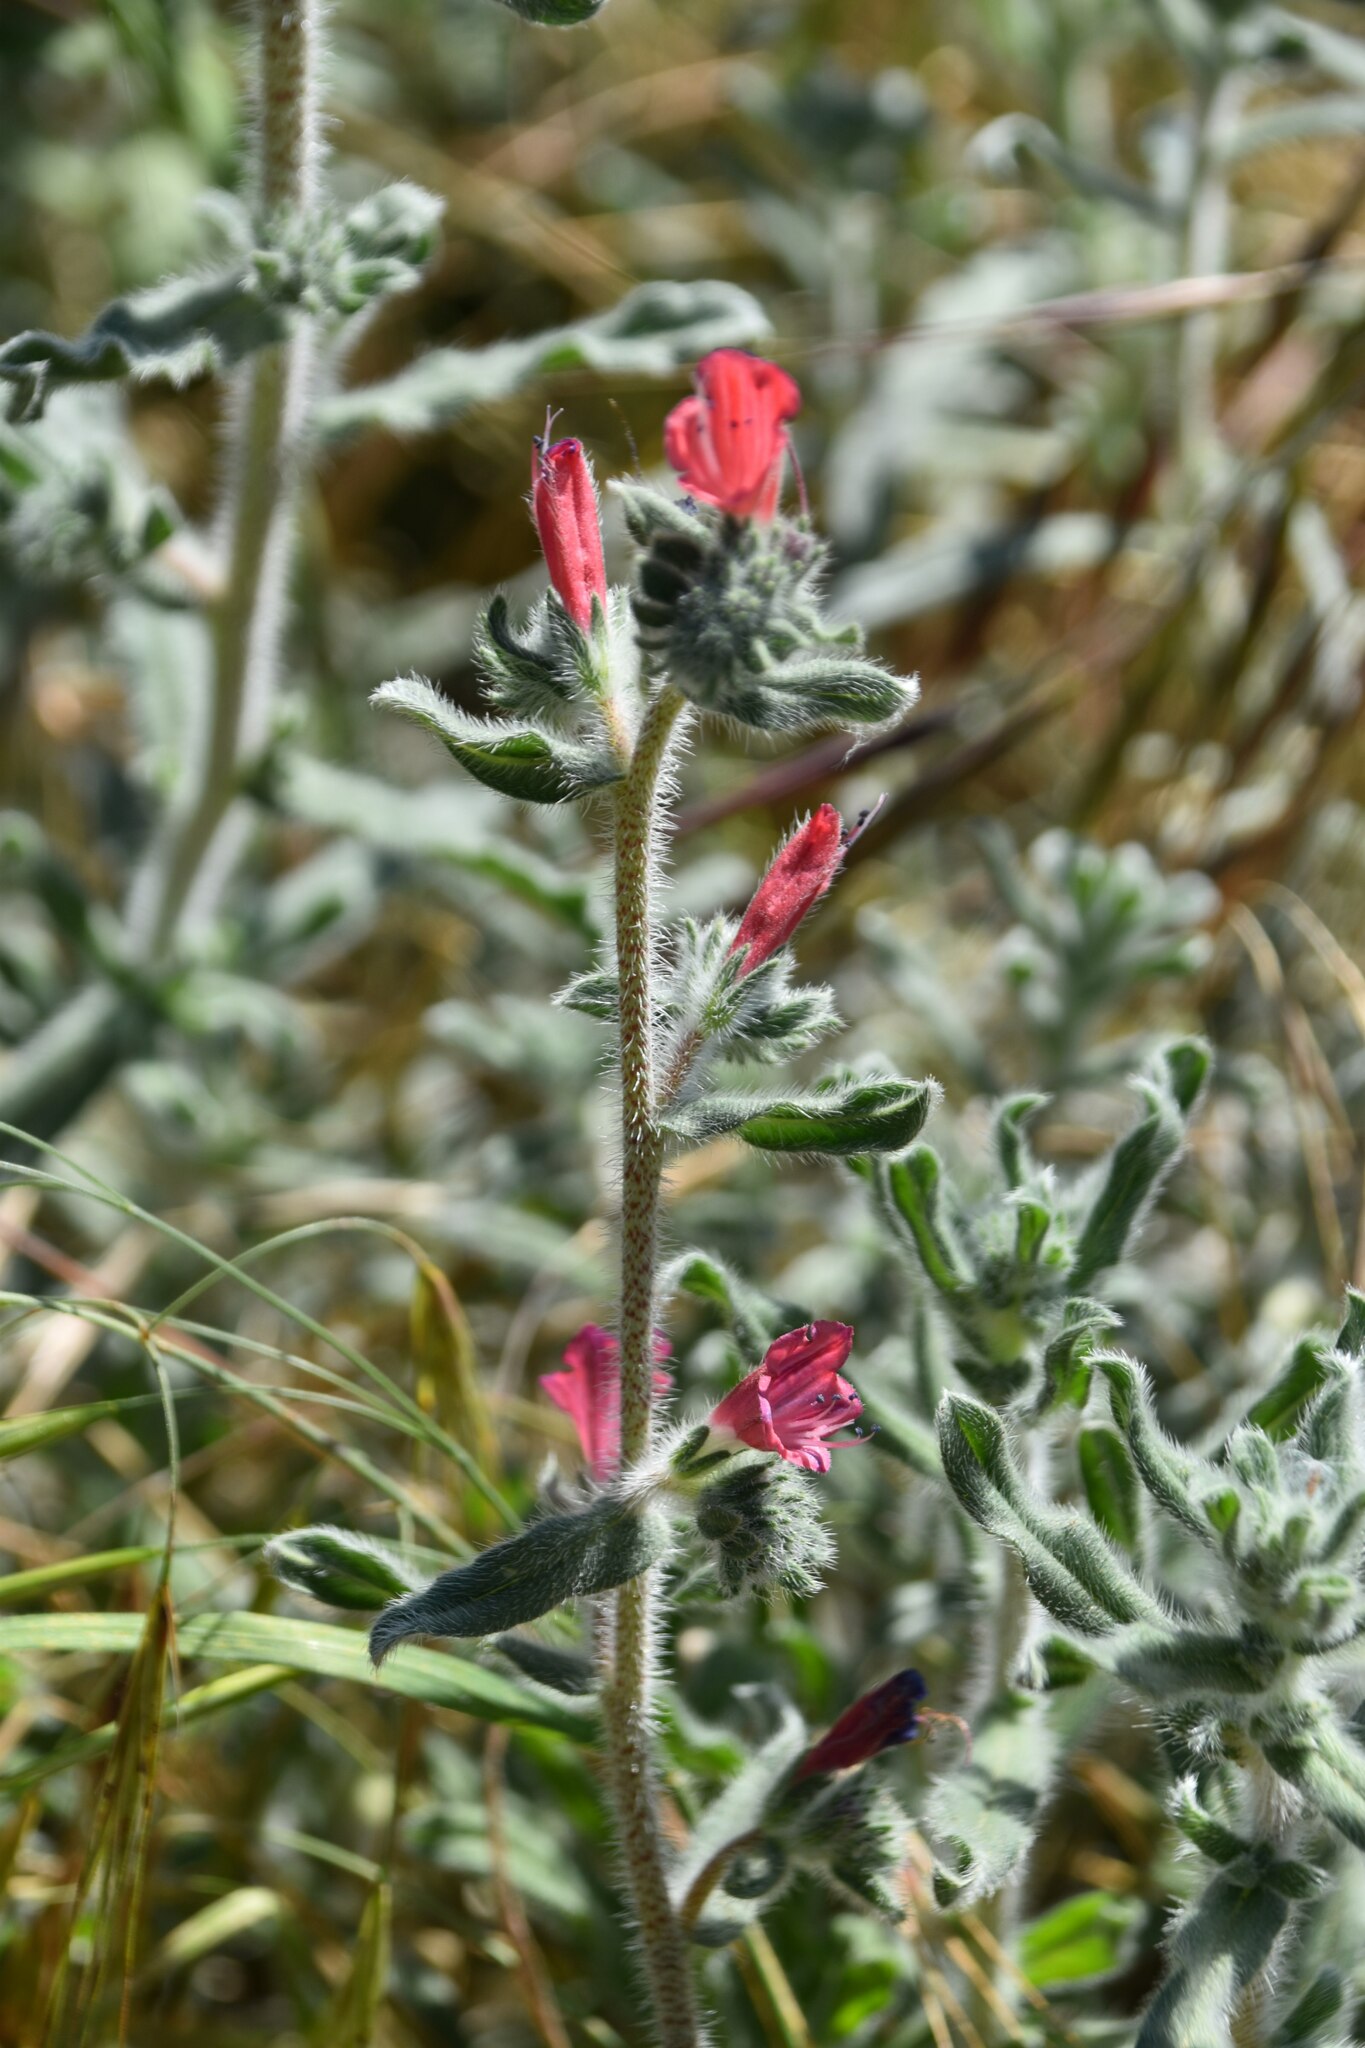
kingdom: Plantae
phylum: Tracheophyta
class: Magnoliopsida
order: Boraginales
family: Boraginaceae
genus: Echium
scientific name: Echium angustifolium
